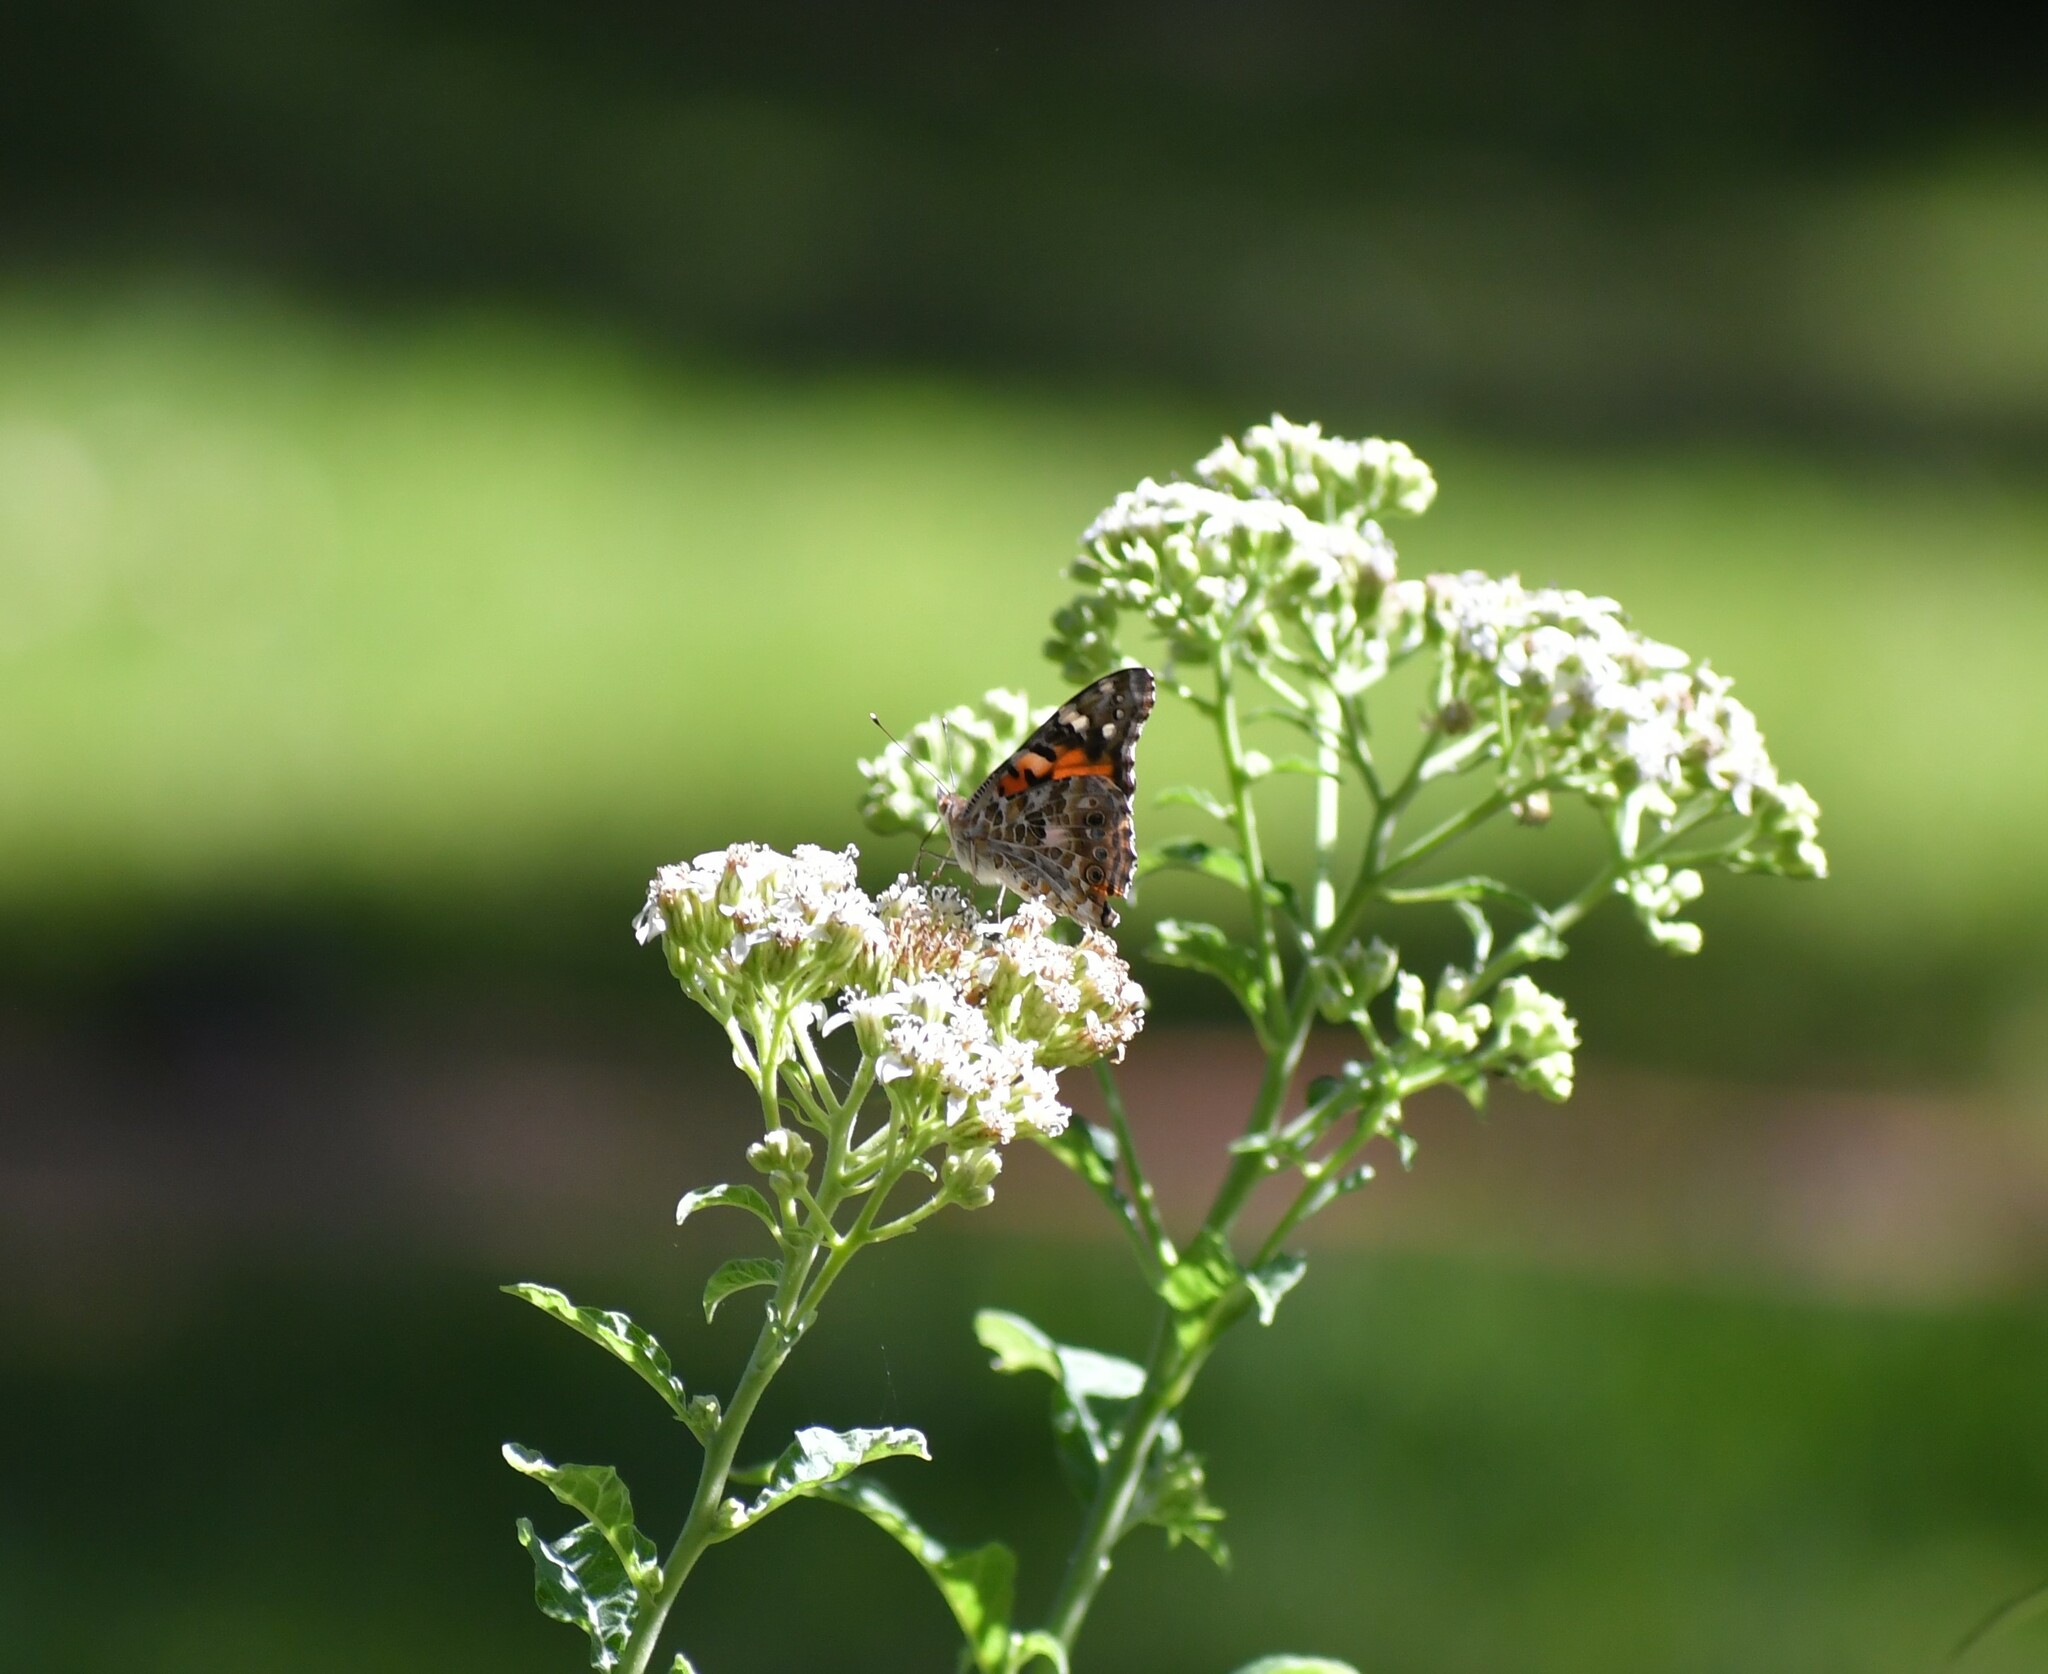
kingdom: Animalia
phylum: Arthropoda
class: Insecta
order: Lepidoptera
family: Nymphalidae
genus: Vanessa
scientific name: Vanessa cardui
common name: Painted lady
